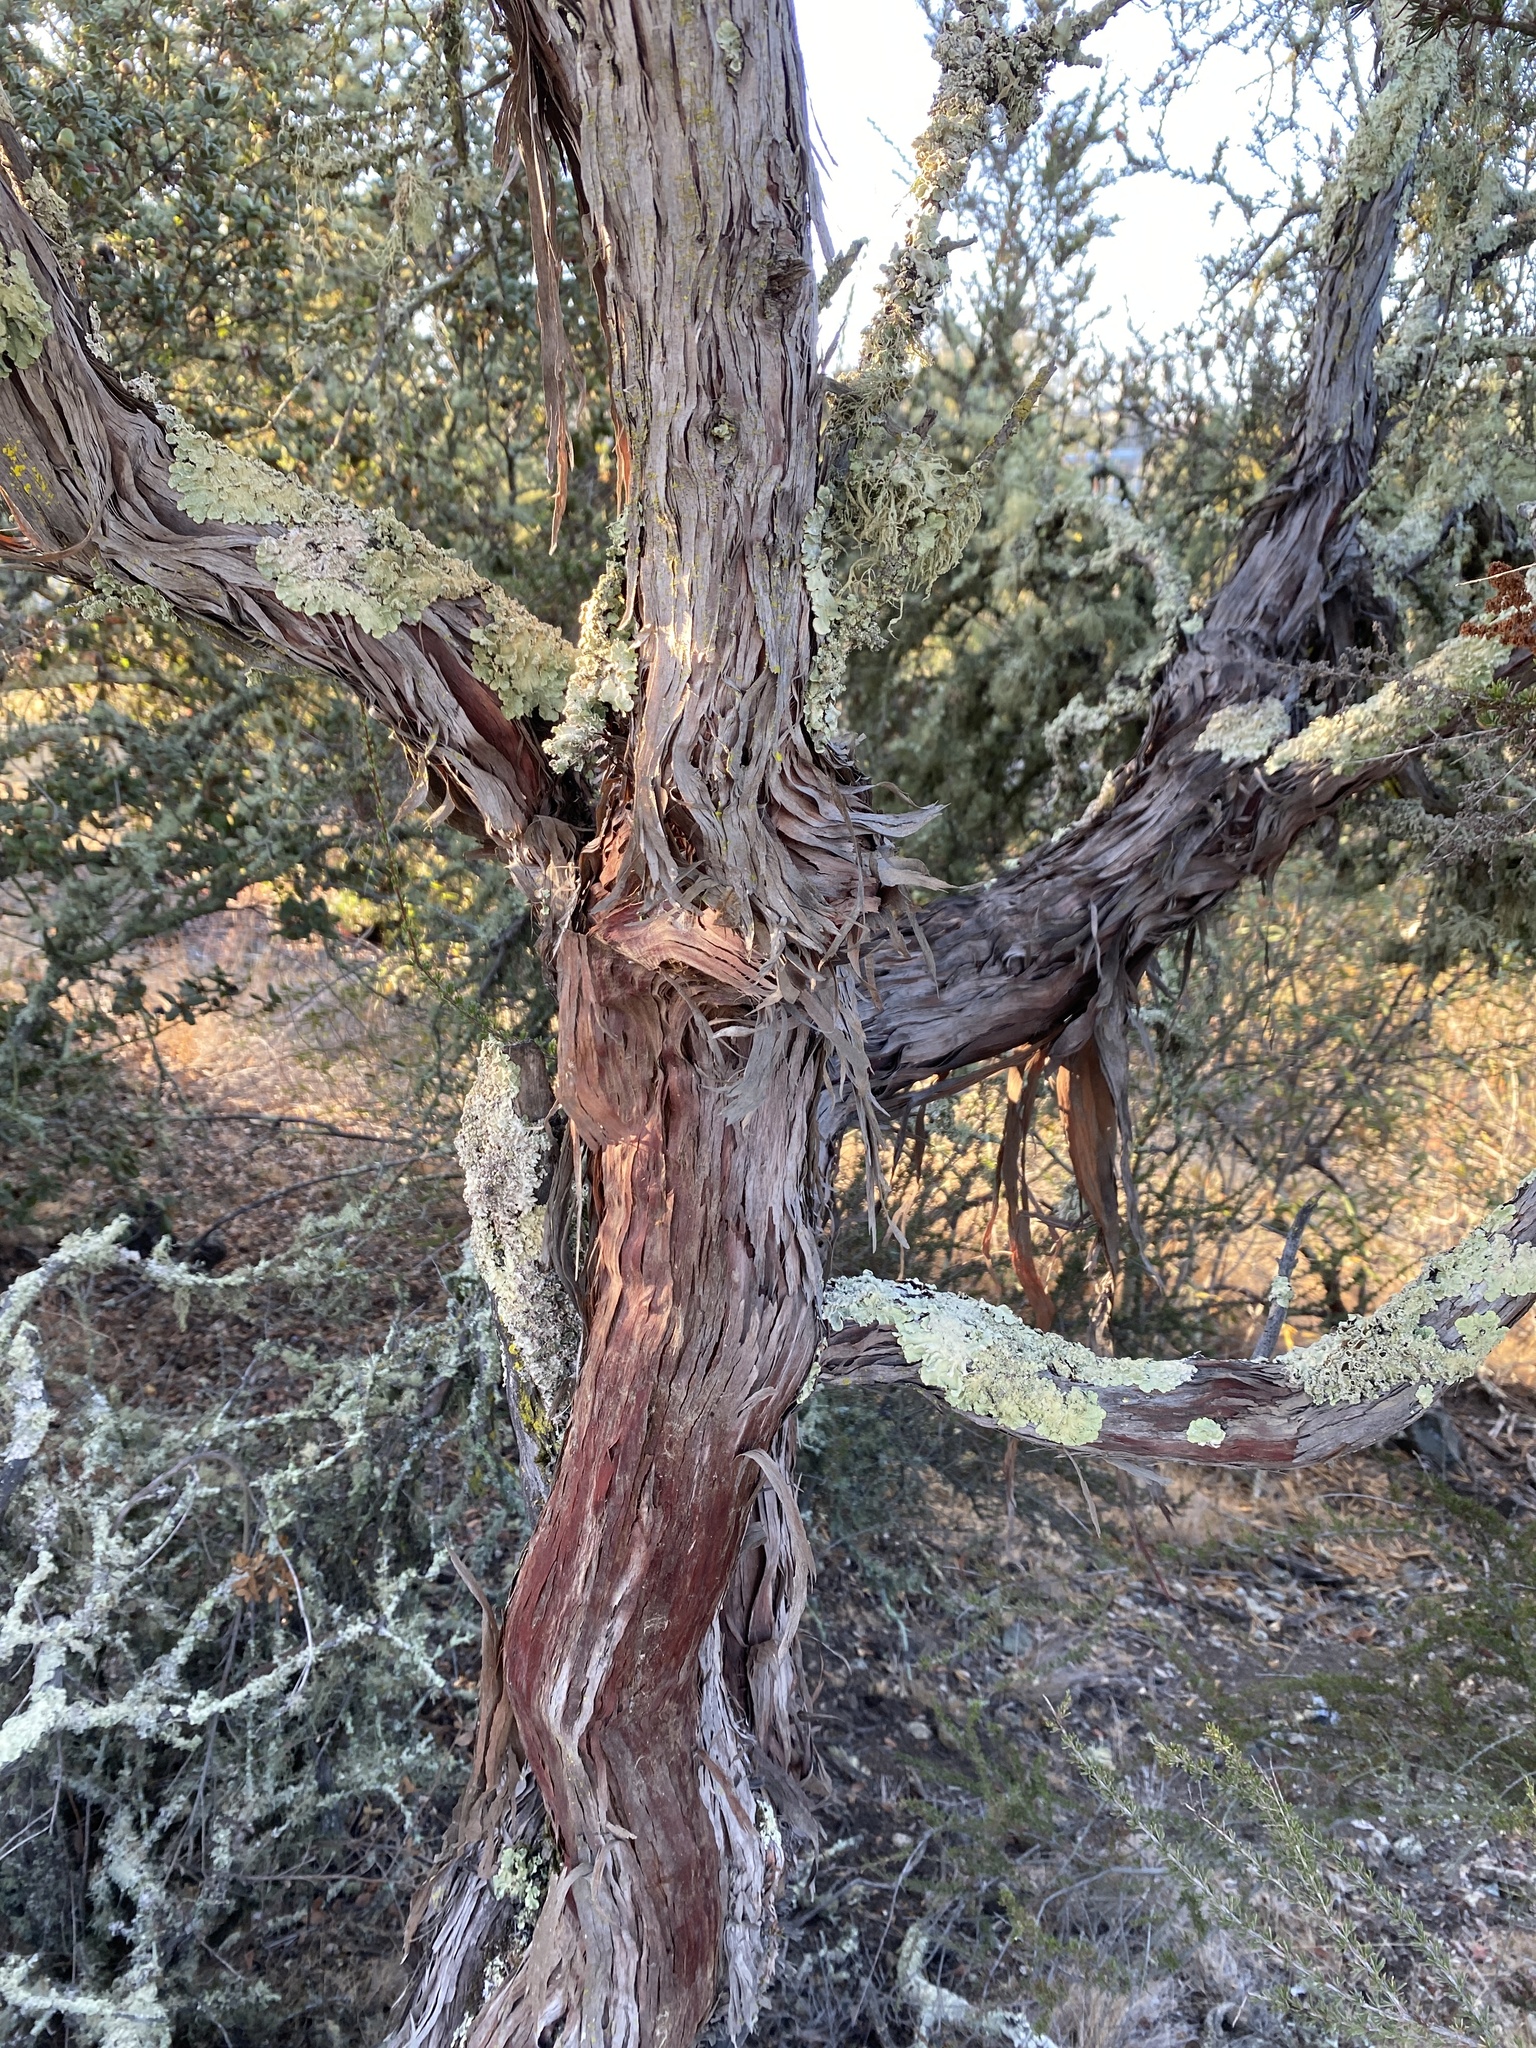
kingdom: Plantae
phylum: Tracheophyta
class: Magnoliopsida
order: Rosales
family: Rosaceae
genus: Adenostoma
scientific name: Adenostoma fasciculatum
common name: Chamise
